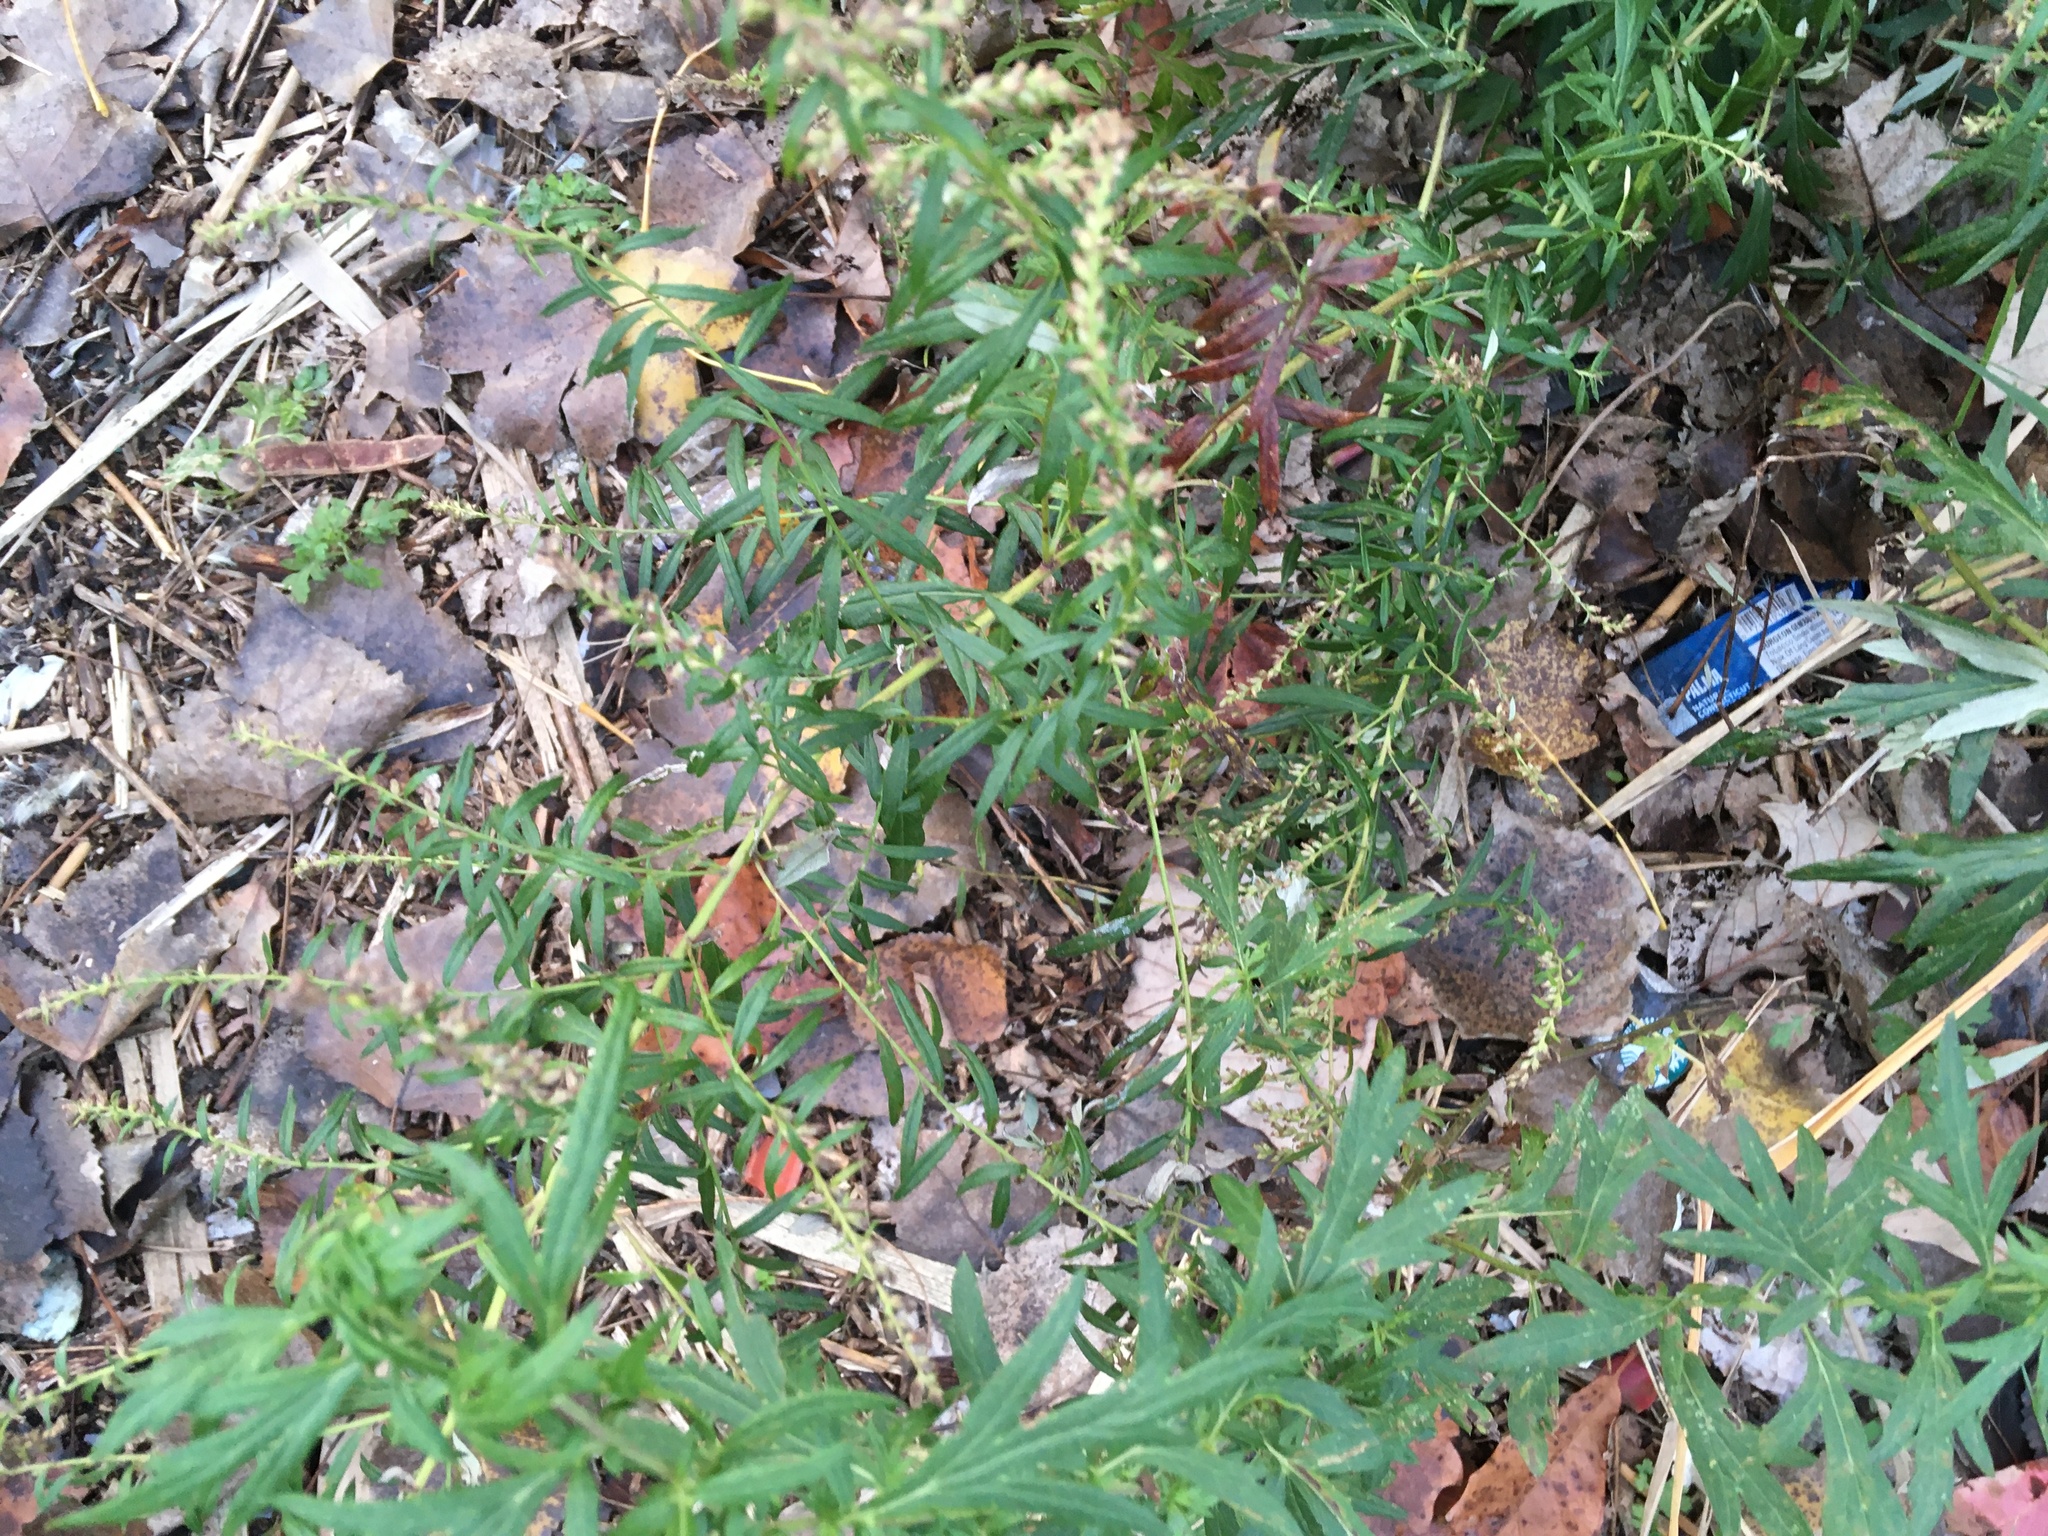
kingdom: Plantae
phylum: Tracheophyta
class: Magnoliopsida
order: Asterales
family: Asteraceae
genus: Artemisia
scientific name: Artemisia vulgaris
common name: Mugwort
